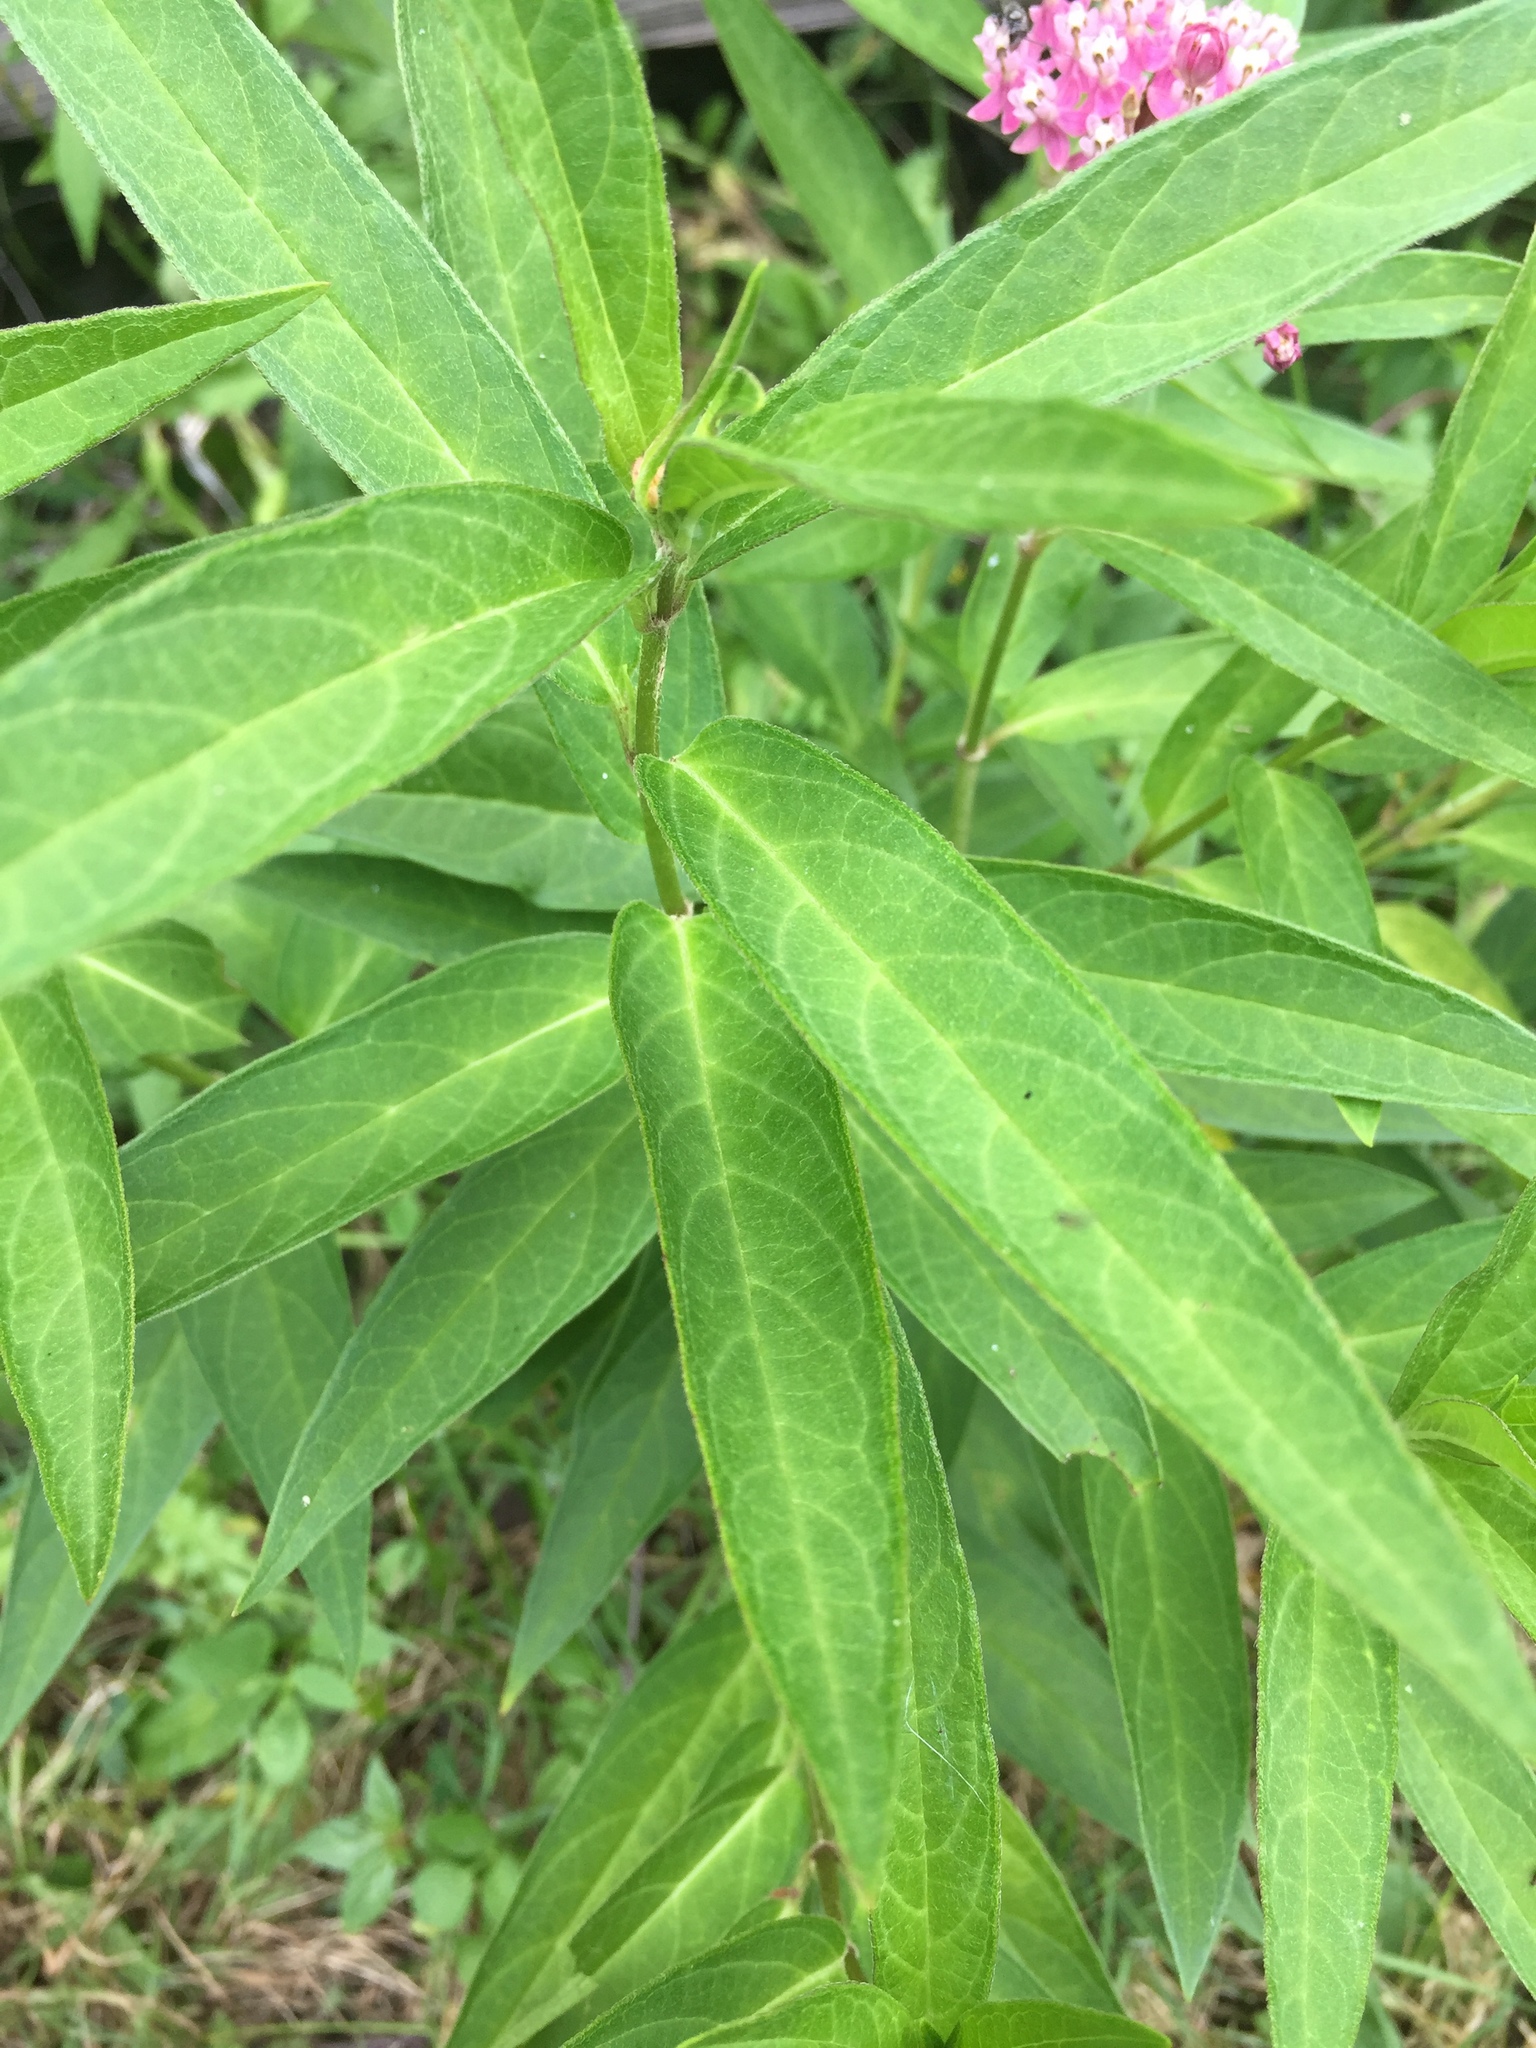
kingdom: Plantae
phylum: Tracheophyta
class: Magnoliopsida
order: Gentianales
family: Apocynaceae
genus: Asclepias
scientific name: Asclepias incarnata
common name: Swamp milkweed
